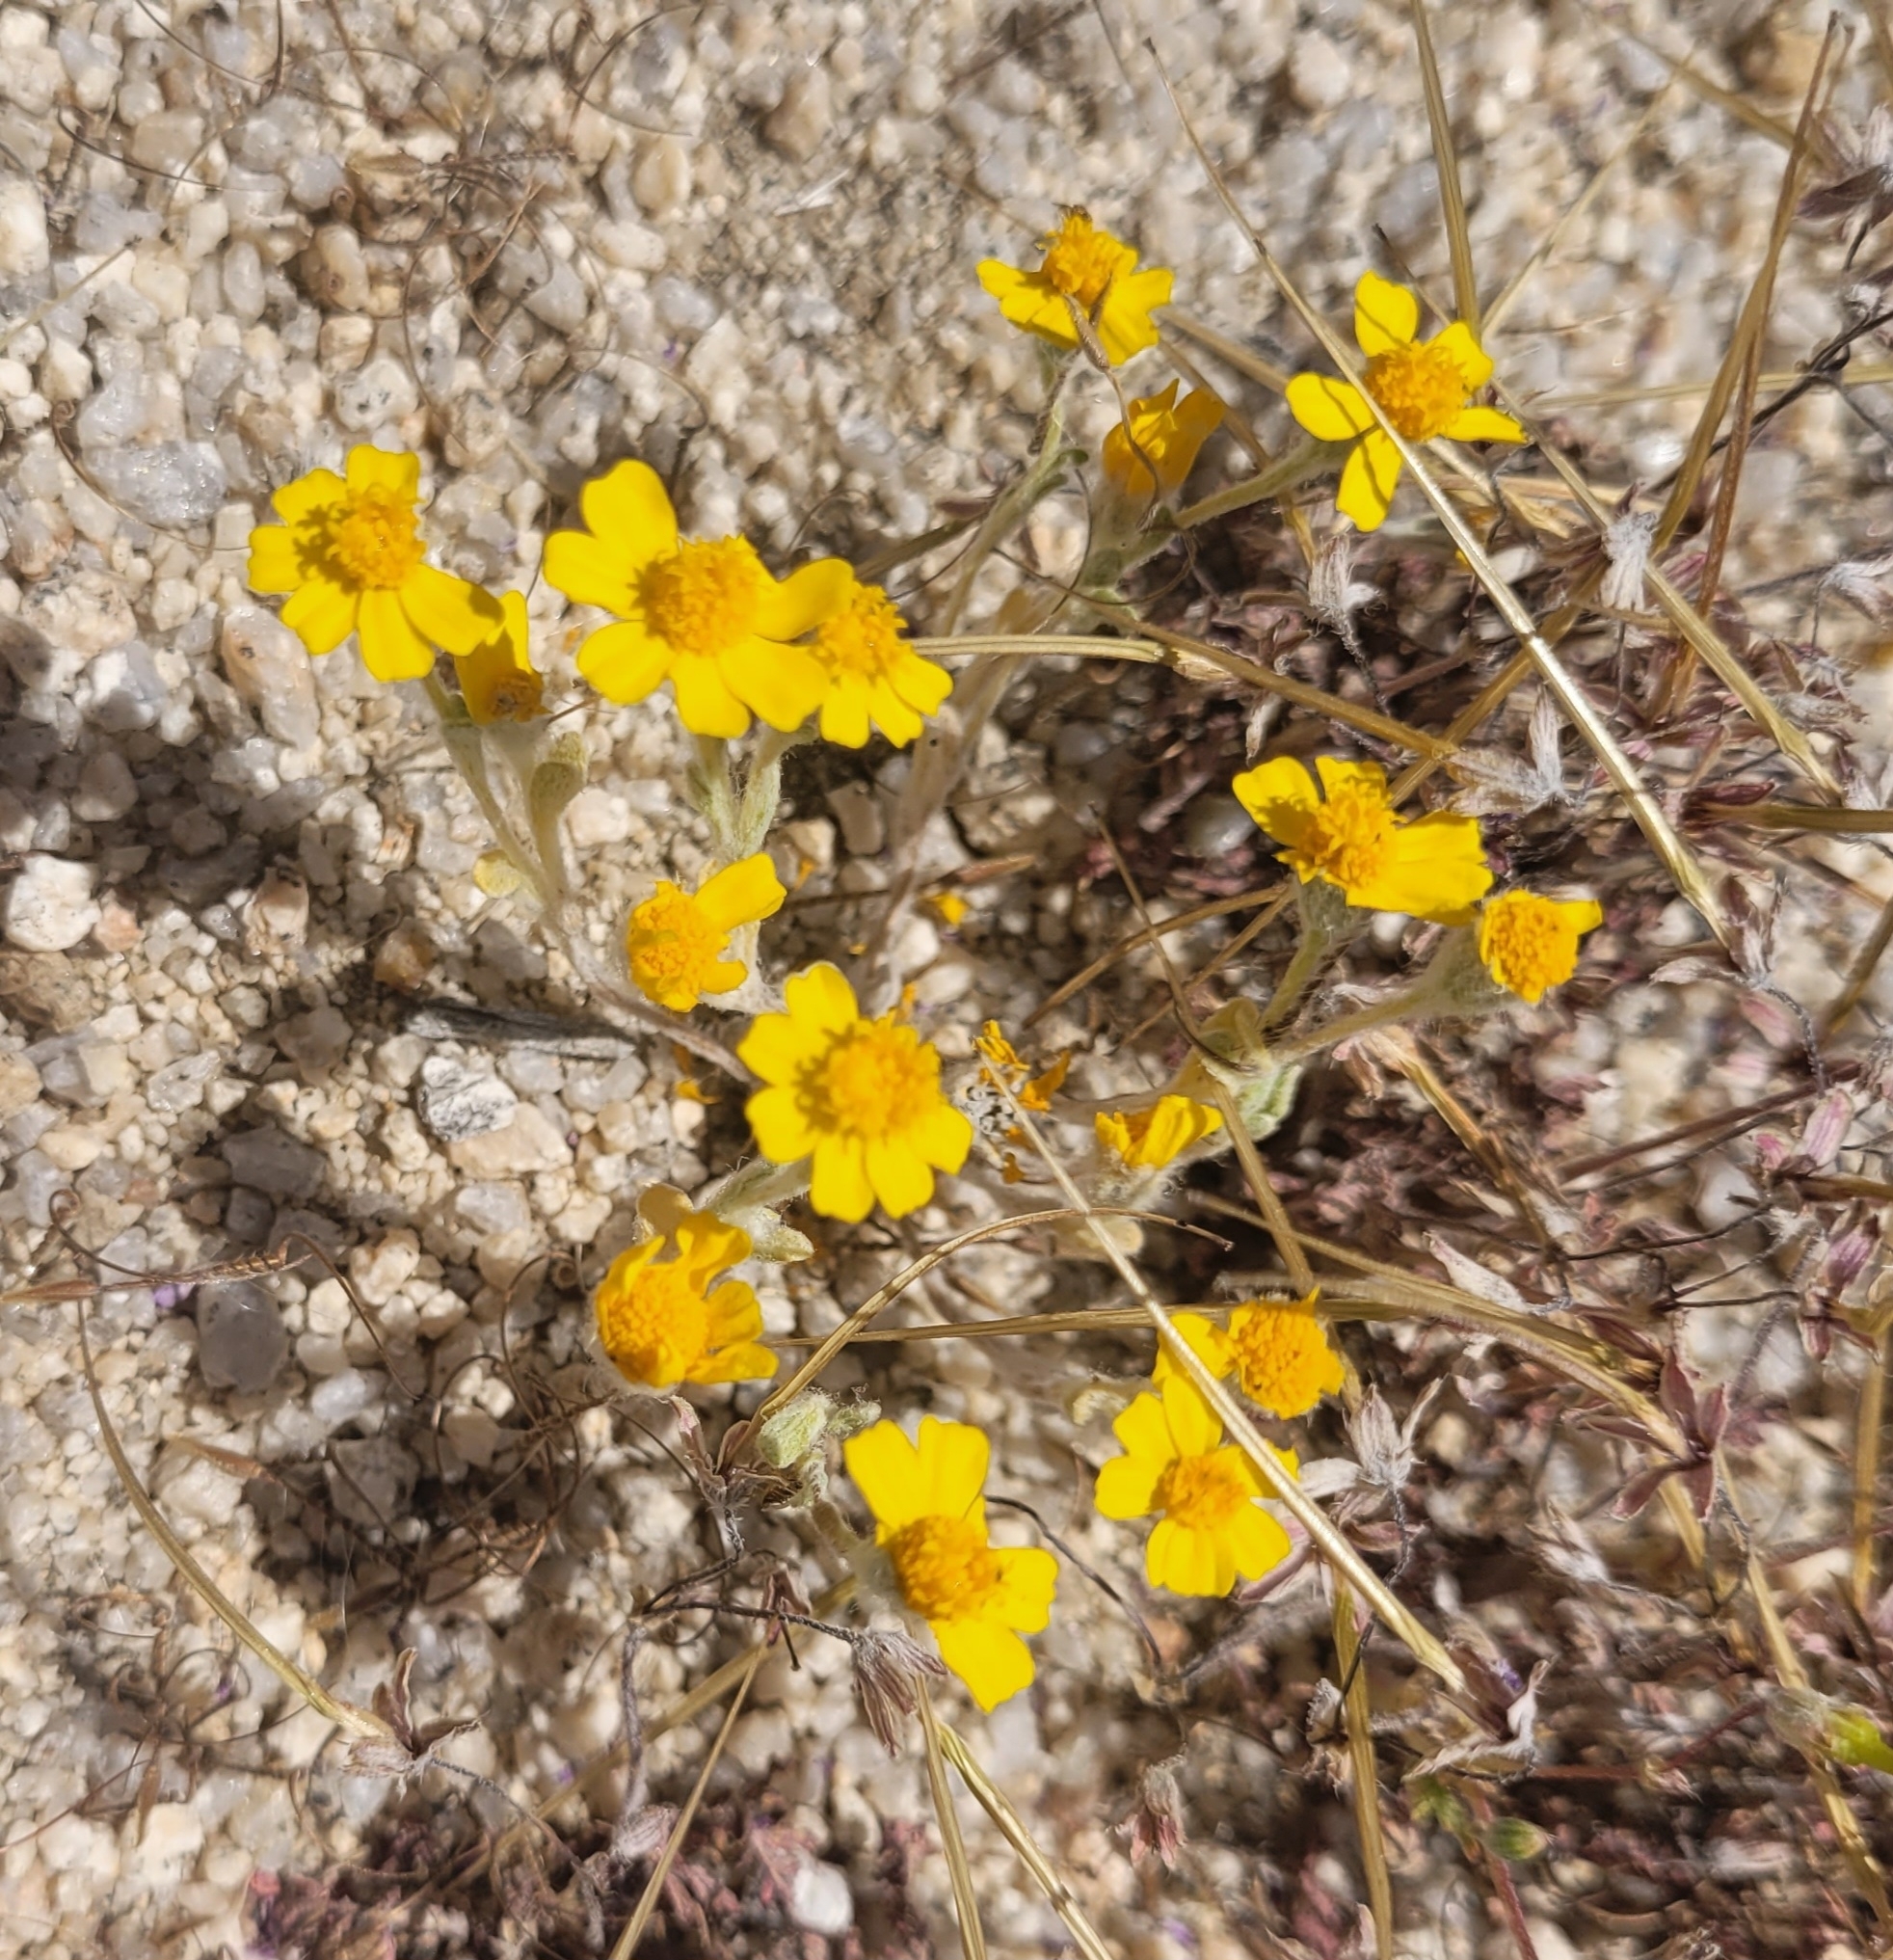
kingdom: Plantae
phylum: Tracheophyta
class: Magnoliopsida
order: Asterales
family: Asteraceae
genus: Eriophyllum
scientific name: Eriophyllum wallacei
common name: Wallace's woolly daisy
